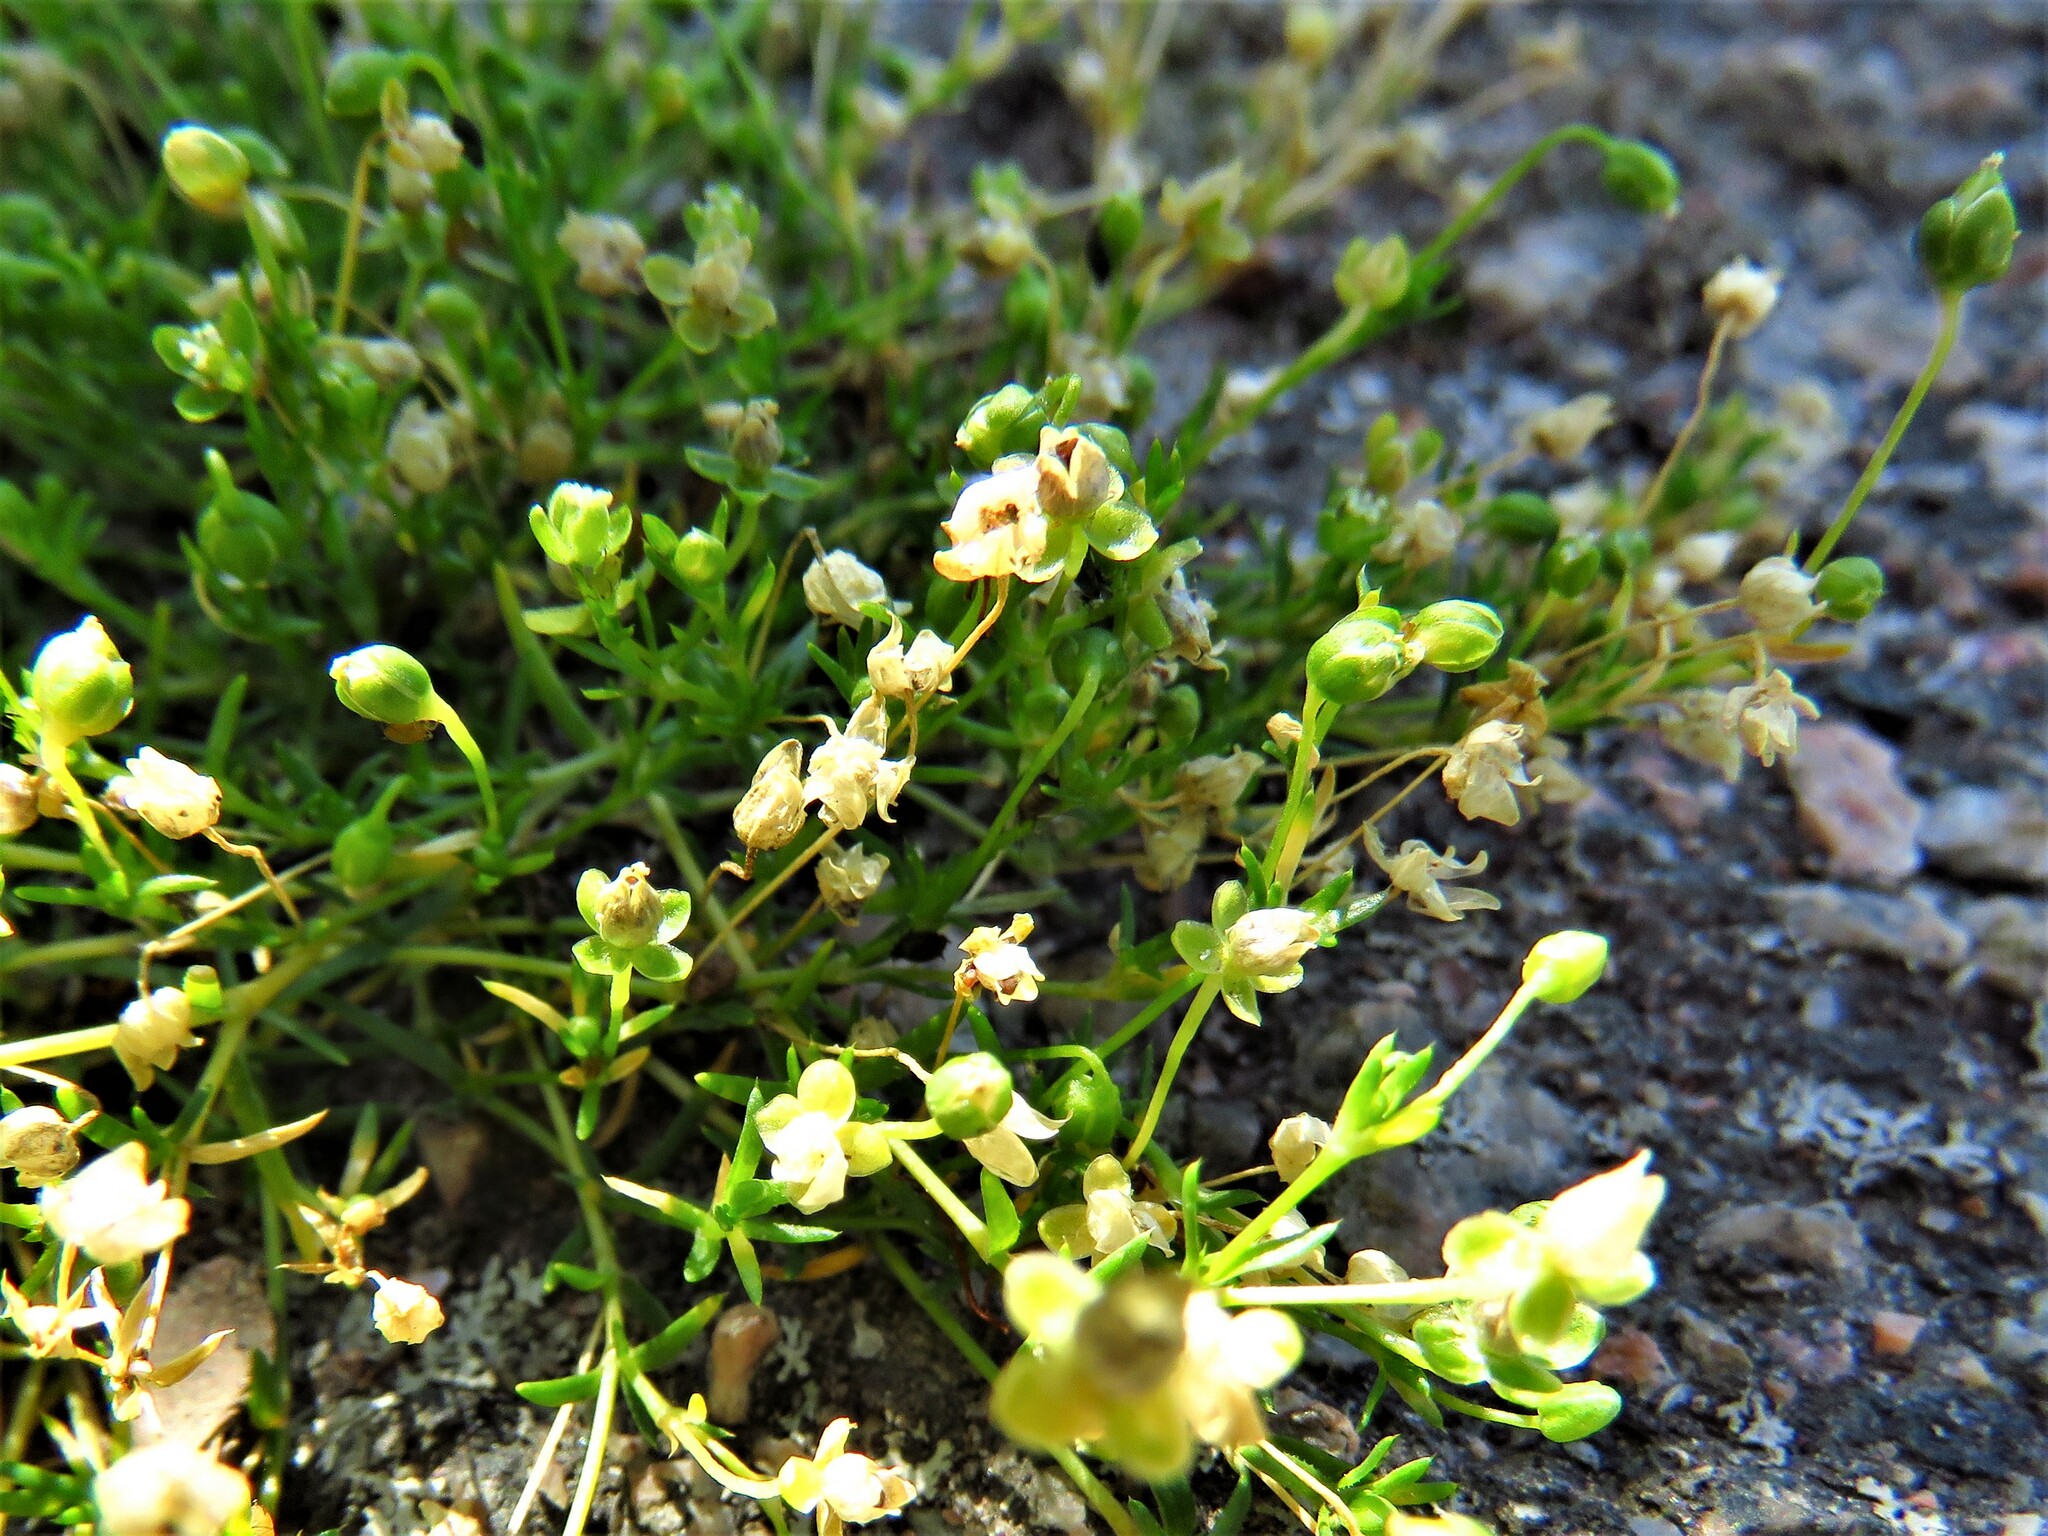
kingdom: Plantae
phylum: Tracheophyta
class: Magnoliopsida
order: Caryophyllales
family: Caryophyllaceae
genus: Sagina
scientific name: Sagina procumbens
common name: Procumbent pearlwort
